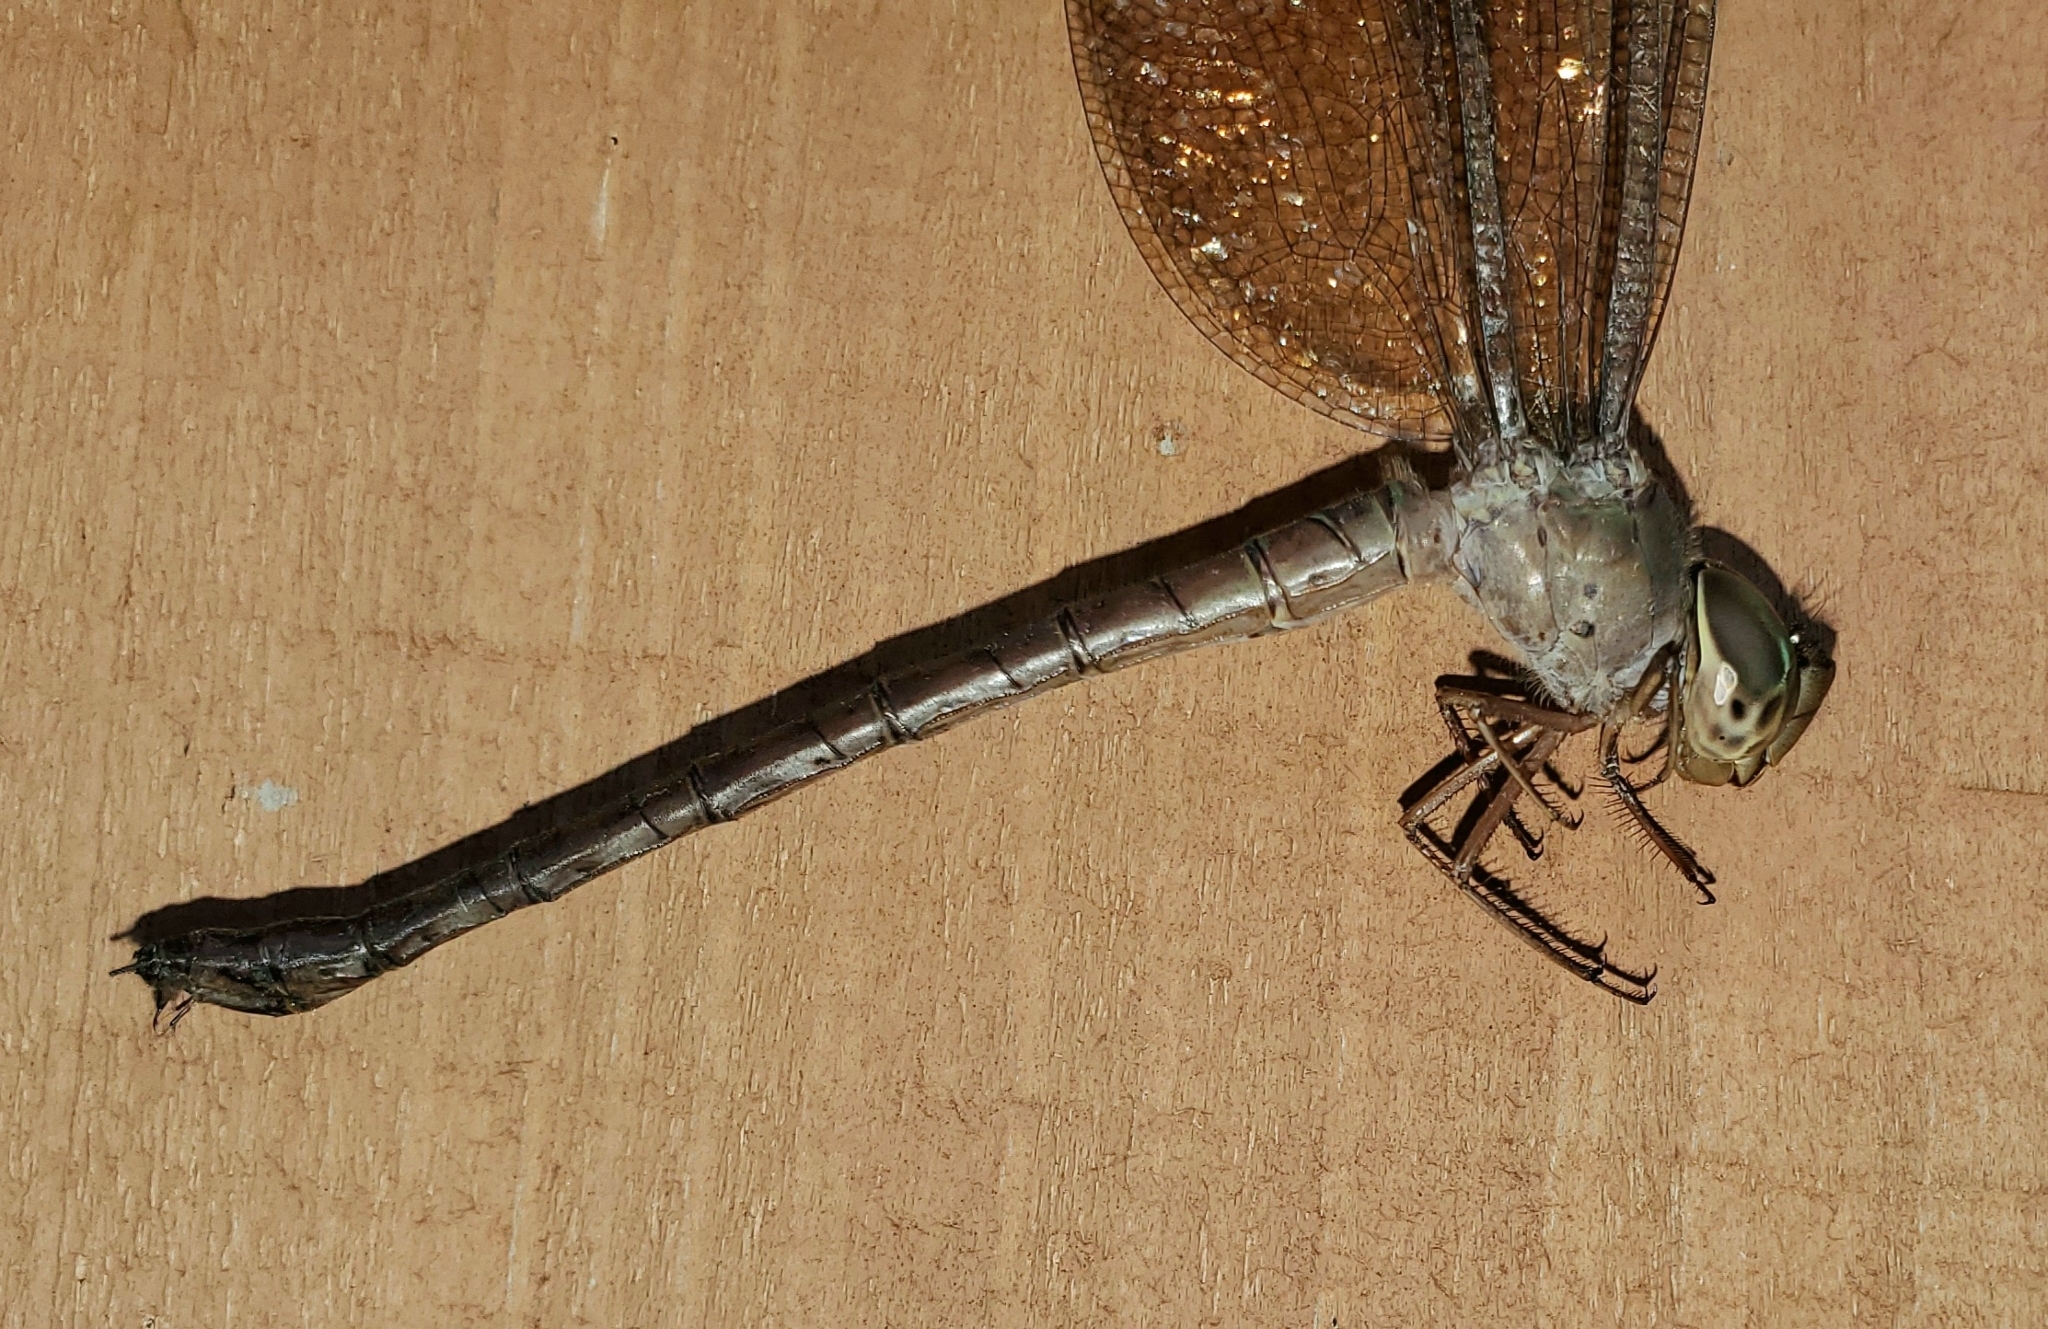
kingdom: Animalia
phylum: Arthropoda
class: Insecta
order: Odonata
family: Aeshnidae
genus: Gynacantha
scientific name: Gynacantha nervosa
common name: Twilight darner
